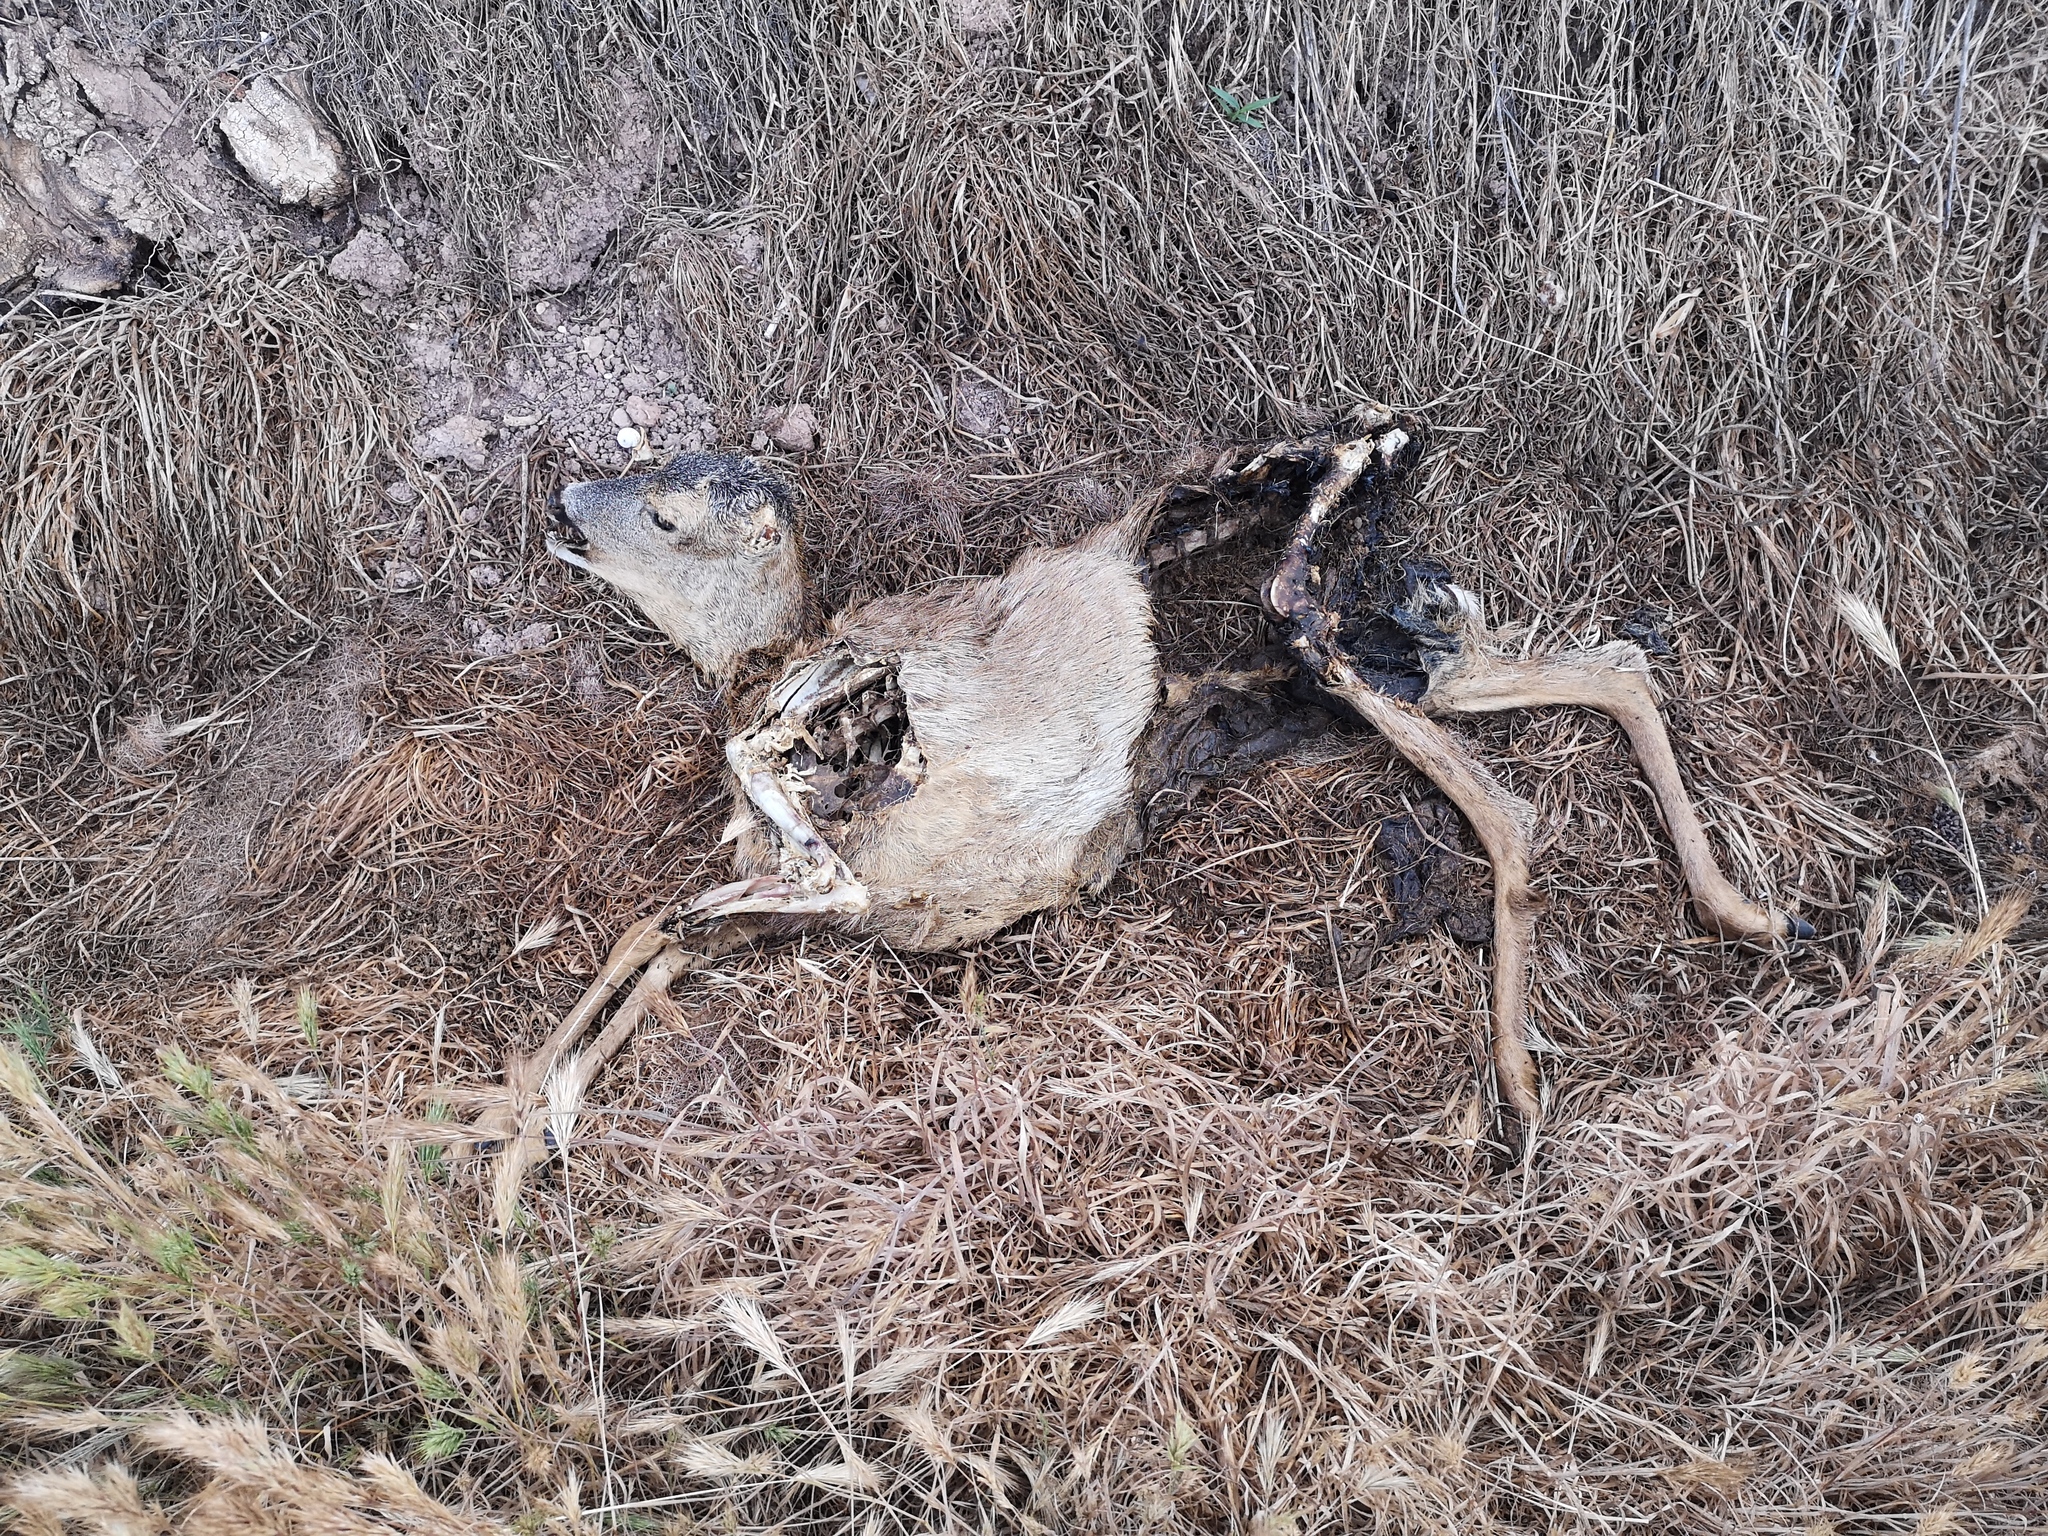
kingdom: Animalia
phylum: Chordata
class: Mammalia
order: Artiodactyla
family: Cervidae
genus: Capreolus
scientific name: Capreolus capreolus
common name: Western roe deer
